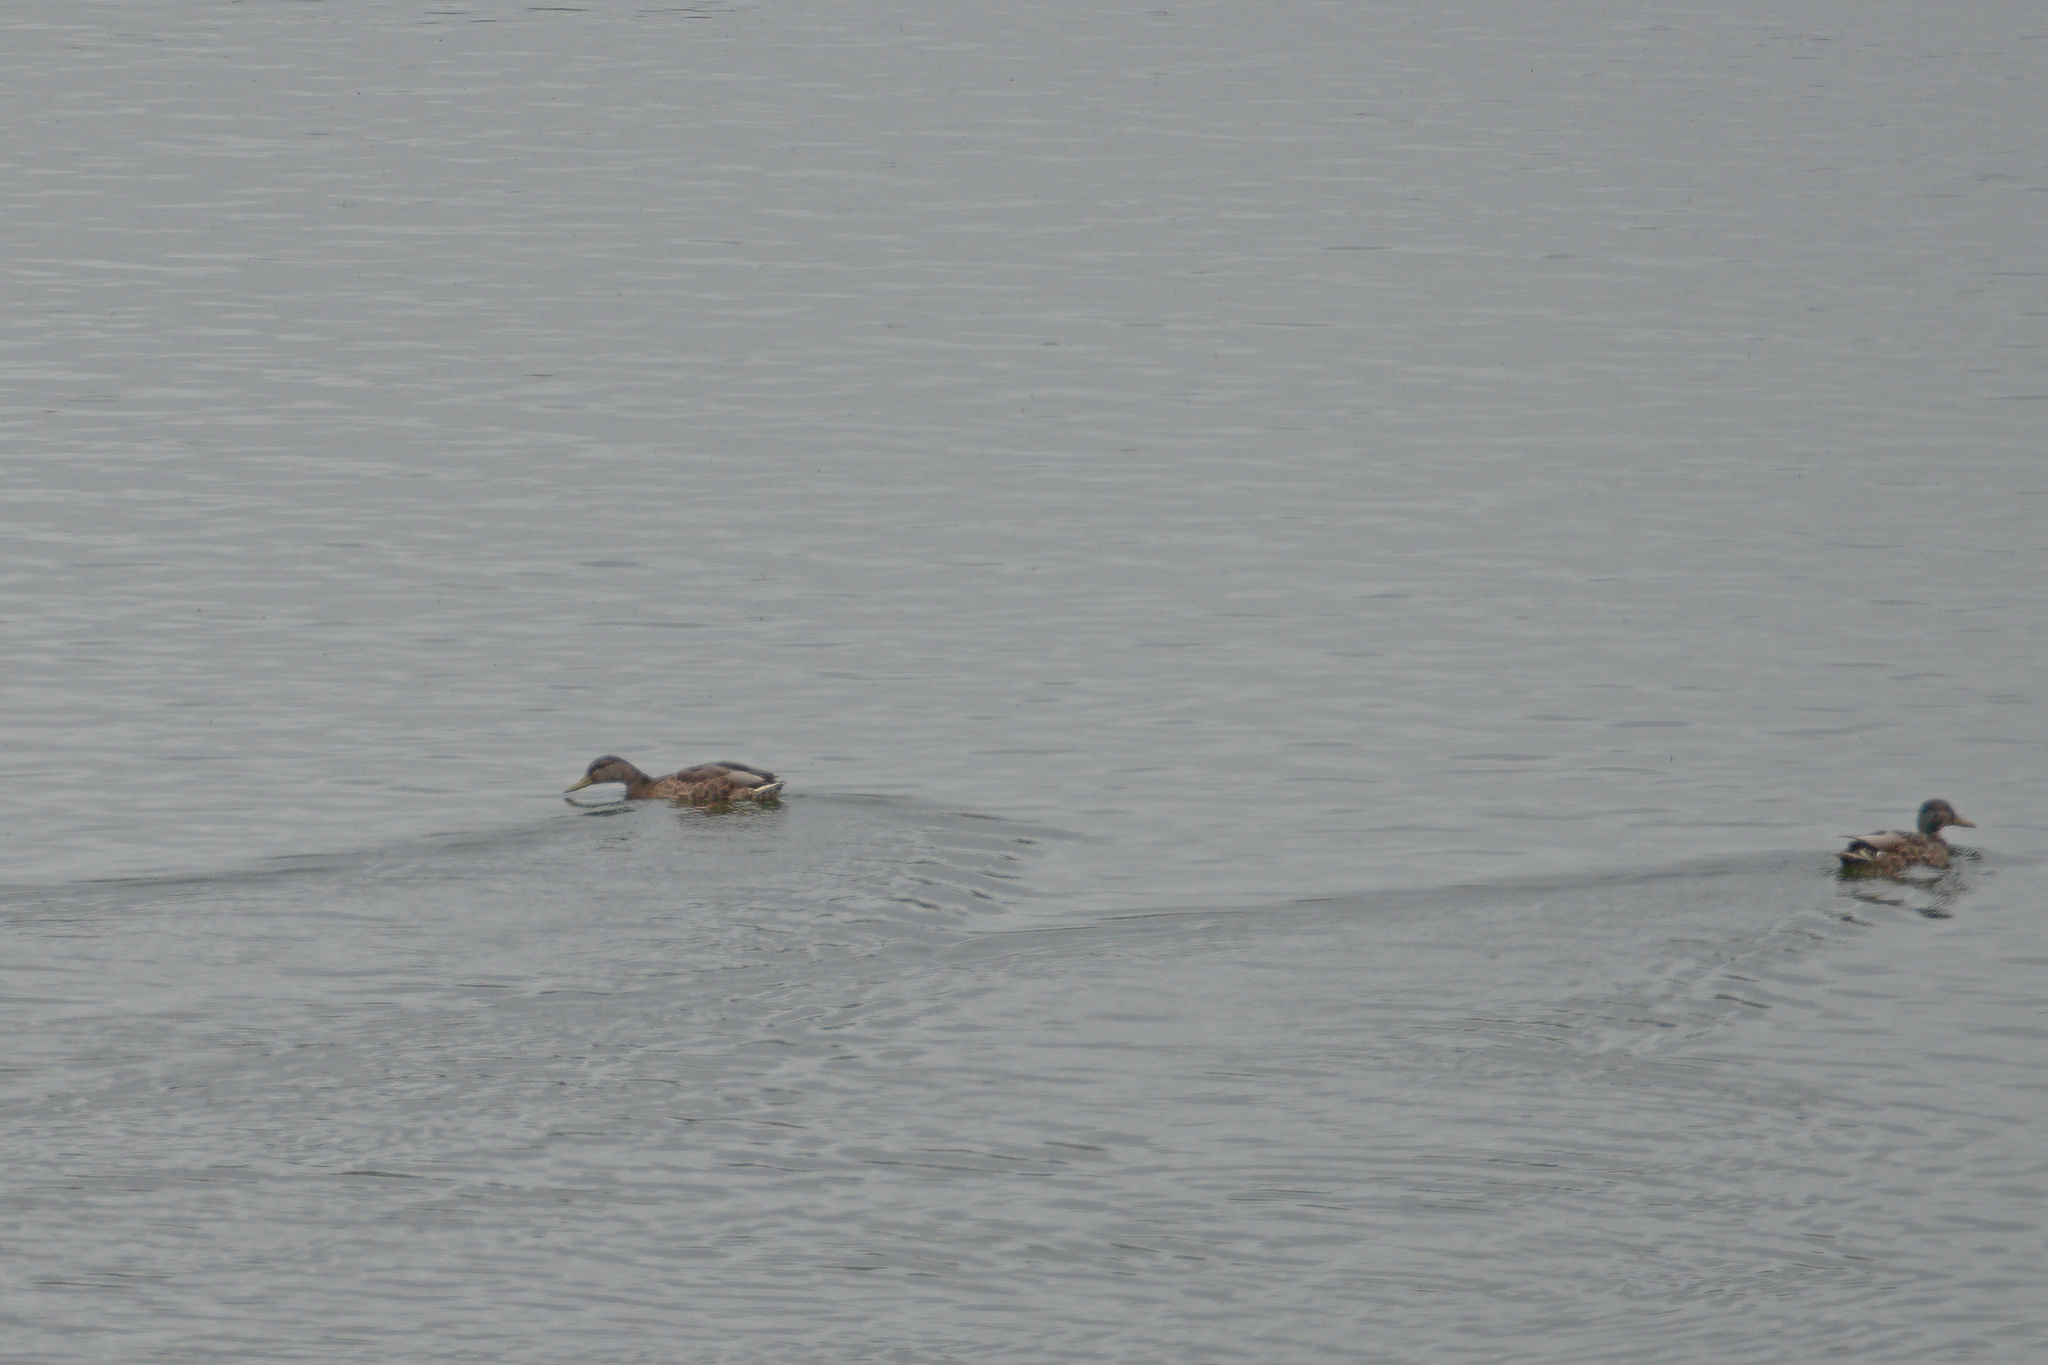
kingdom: Animalia
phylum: Chordata
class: Aves
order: Anseriformes
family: Anatidae
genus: Anas
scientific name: Anas platyrhynchos
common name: Mallard
